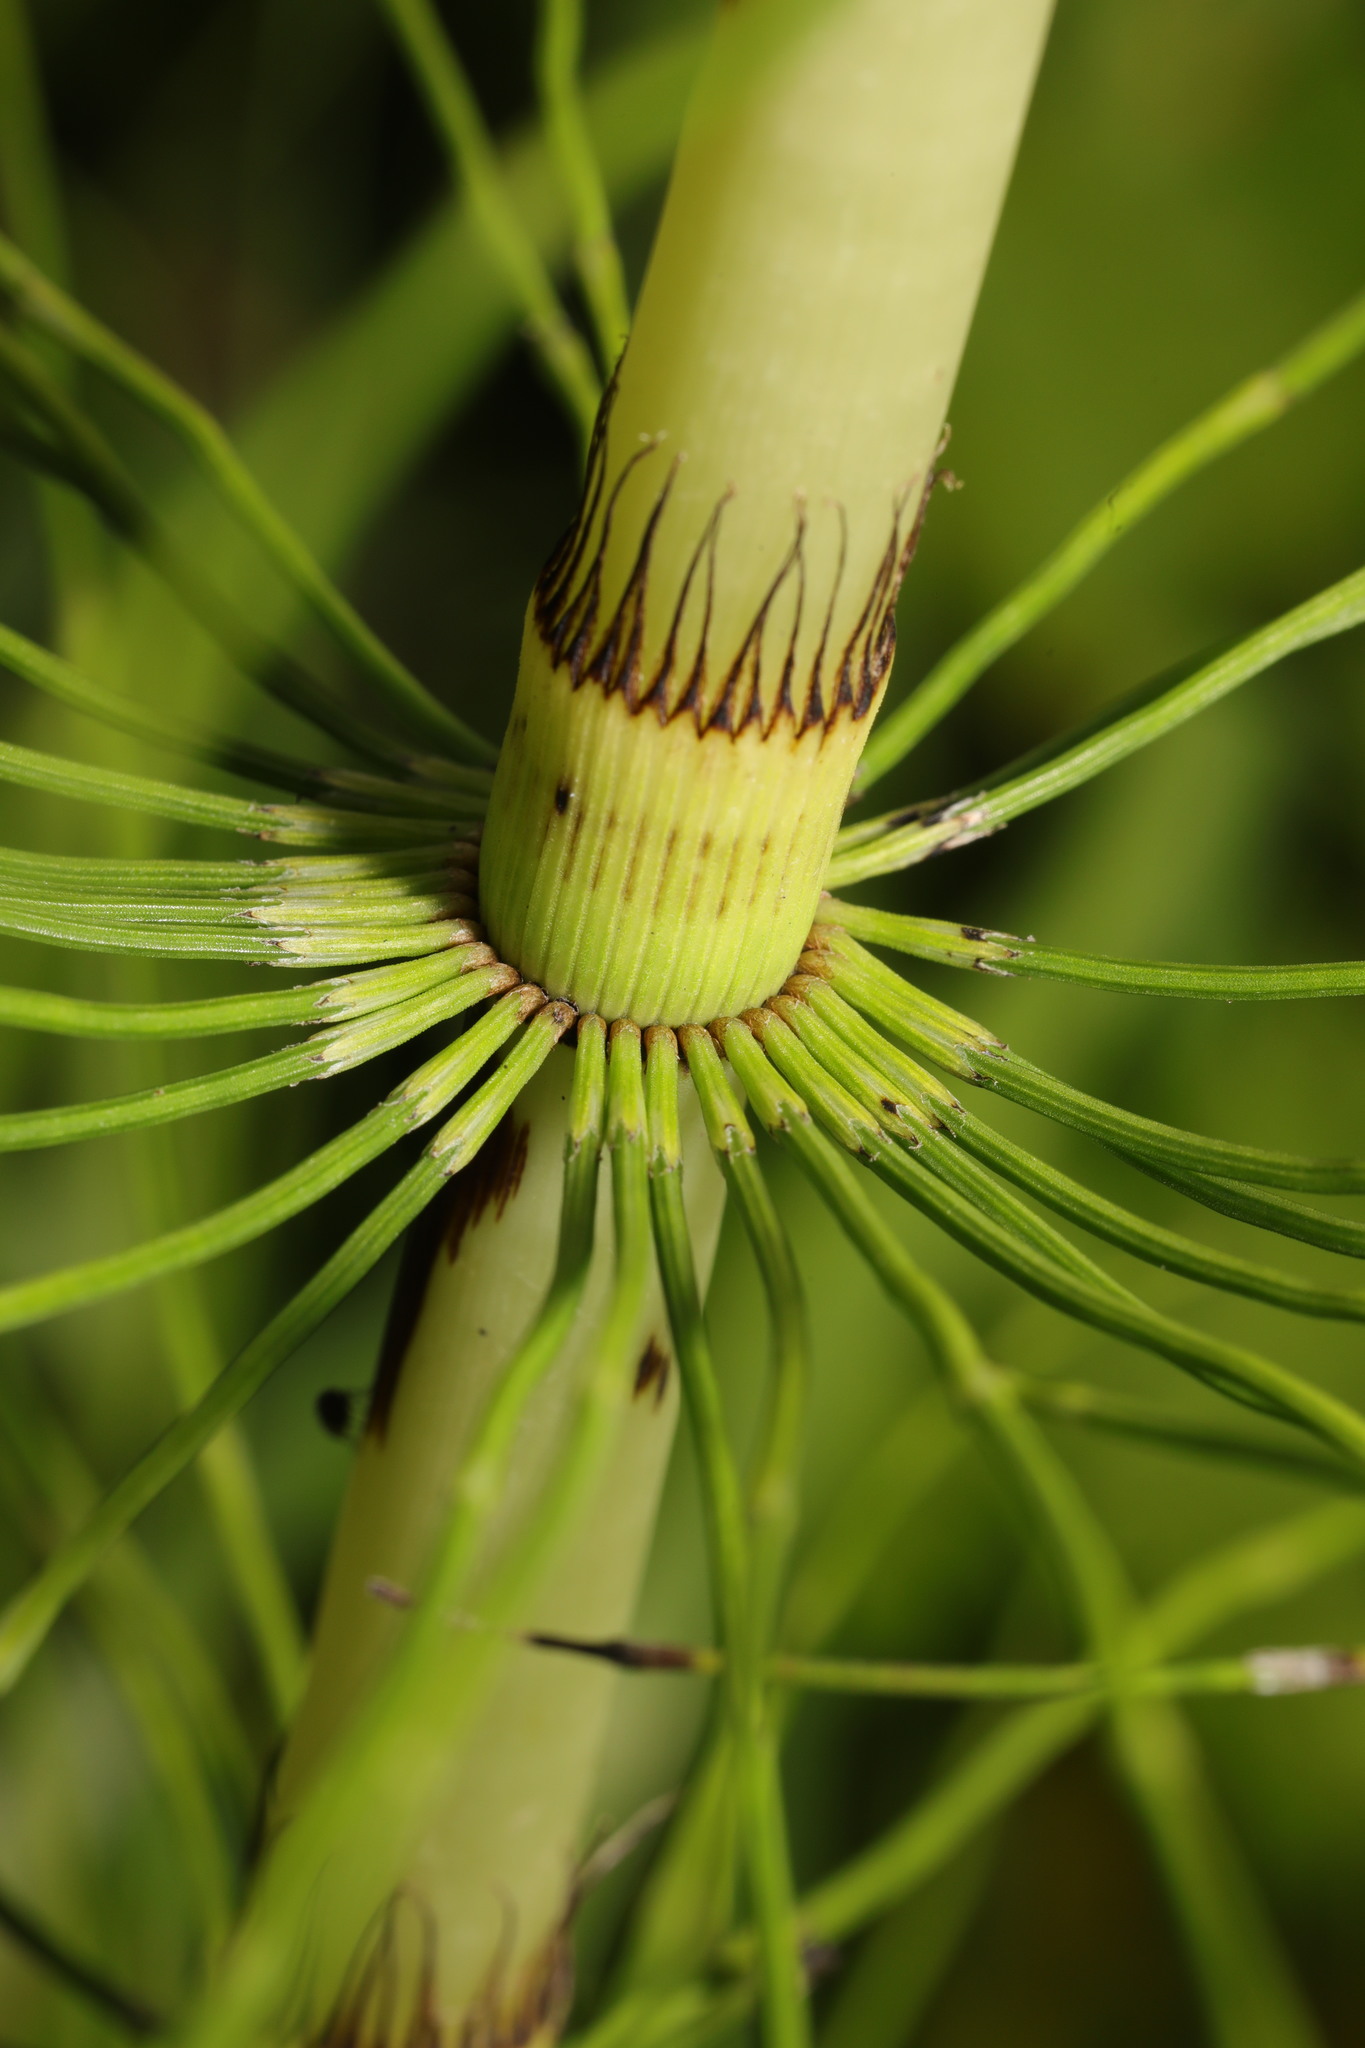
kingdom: Plantae
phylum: Tracheophyta
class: Polypodiopsida
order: Equisetales
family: Equisetaceae
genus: Equisetum
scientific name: Equisetum telmateia
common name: Great horsetail
